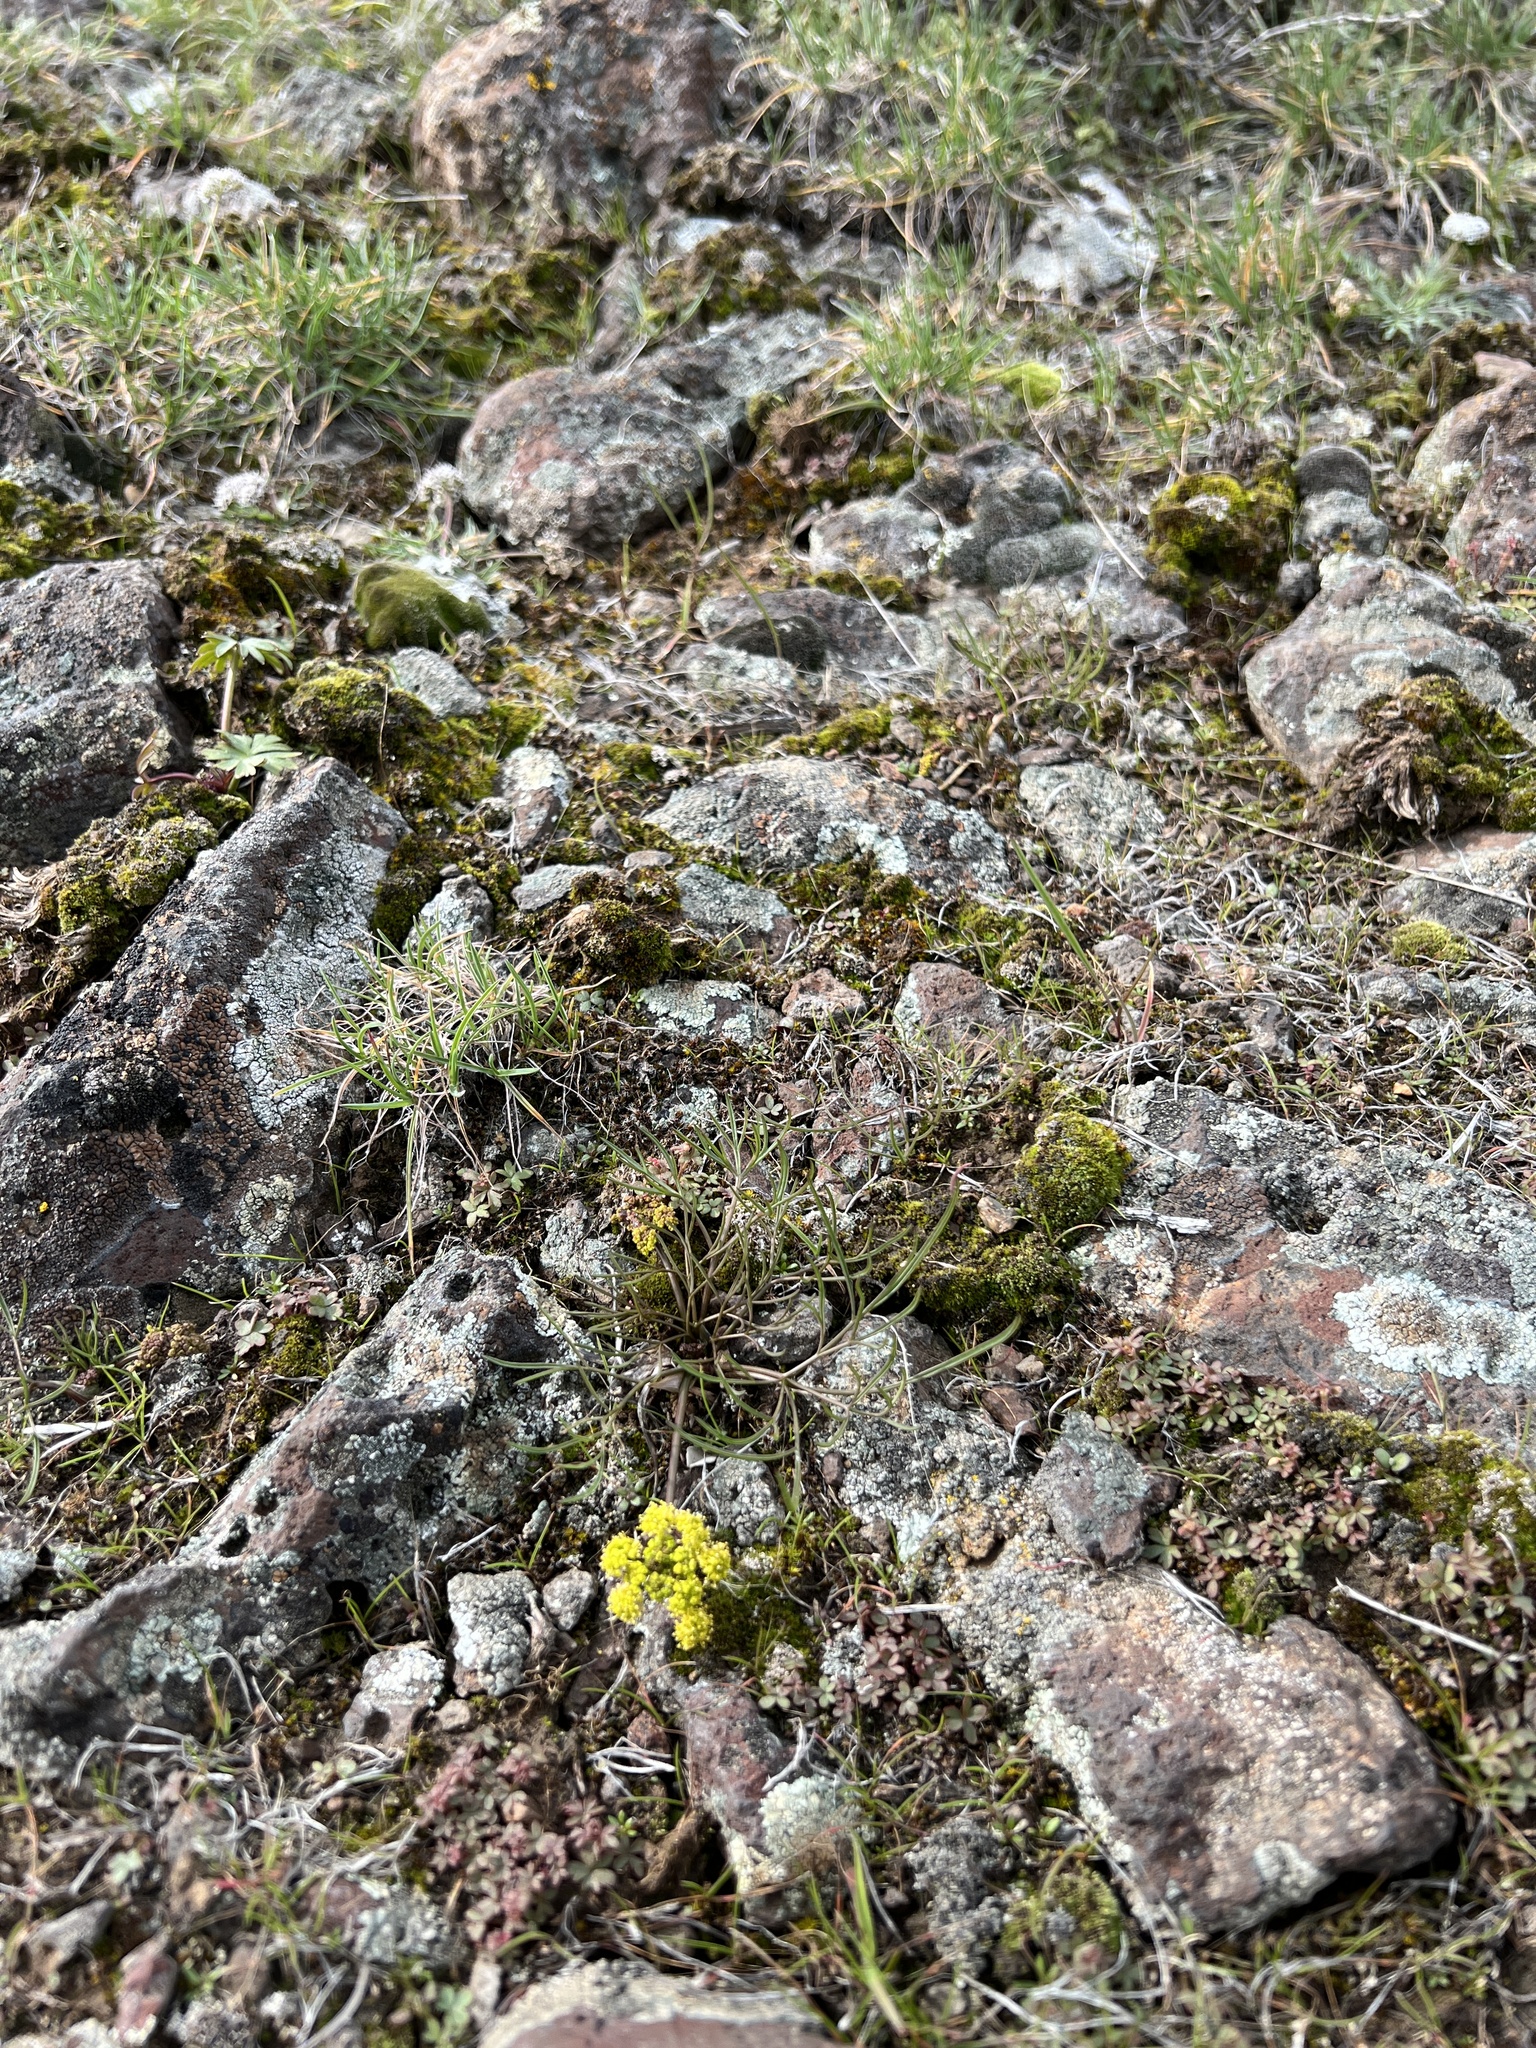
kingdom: Plantae
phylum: Tracheophyta
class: Magnoliopsida
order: Apiales
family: Apiaceae
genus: Lomatium
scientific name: Lomatium farinosum
